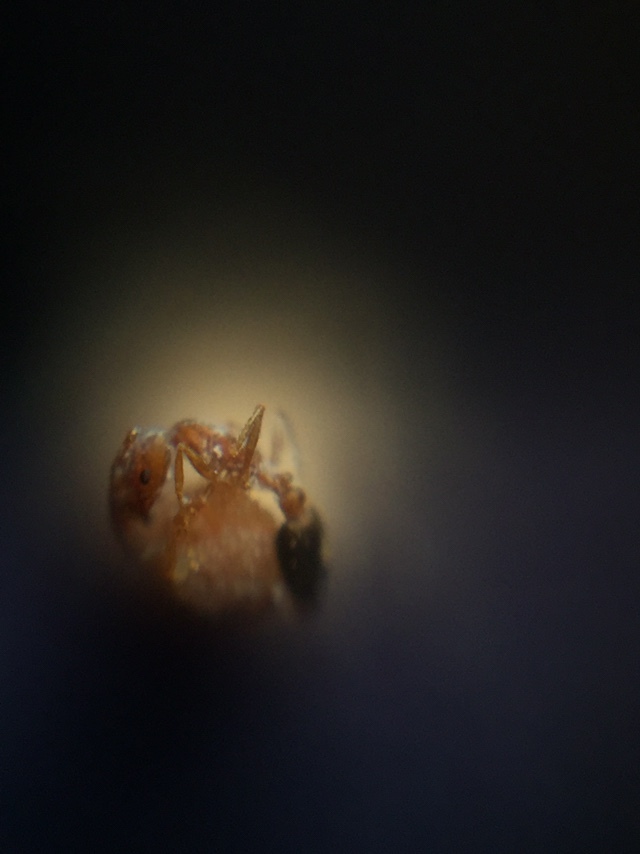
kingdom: Animalia
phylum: Arthropoda
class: Insecta
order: Hymenoptera
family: Formicidae
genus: Monomorium
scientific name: Monomorium sahlbergi
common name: Ant
